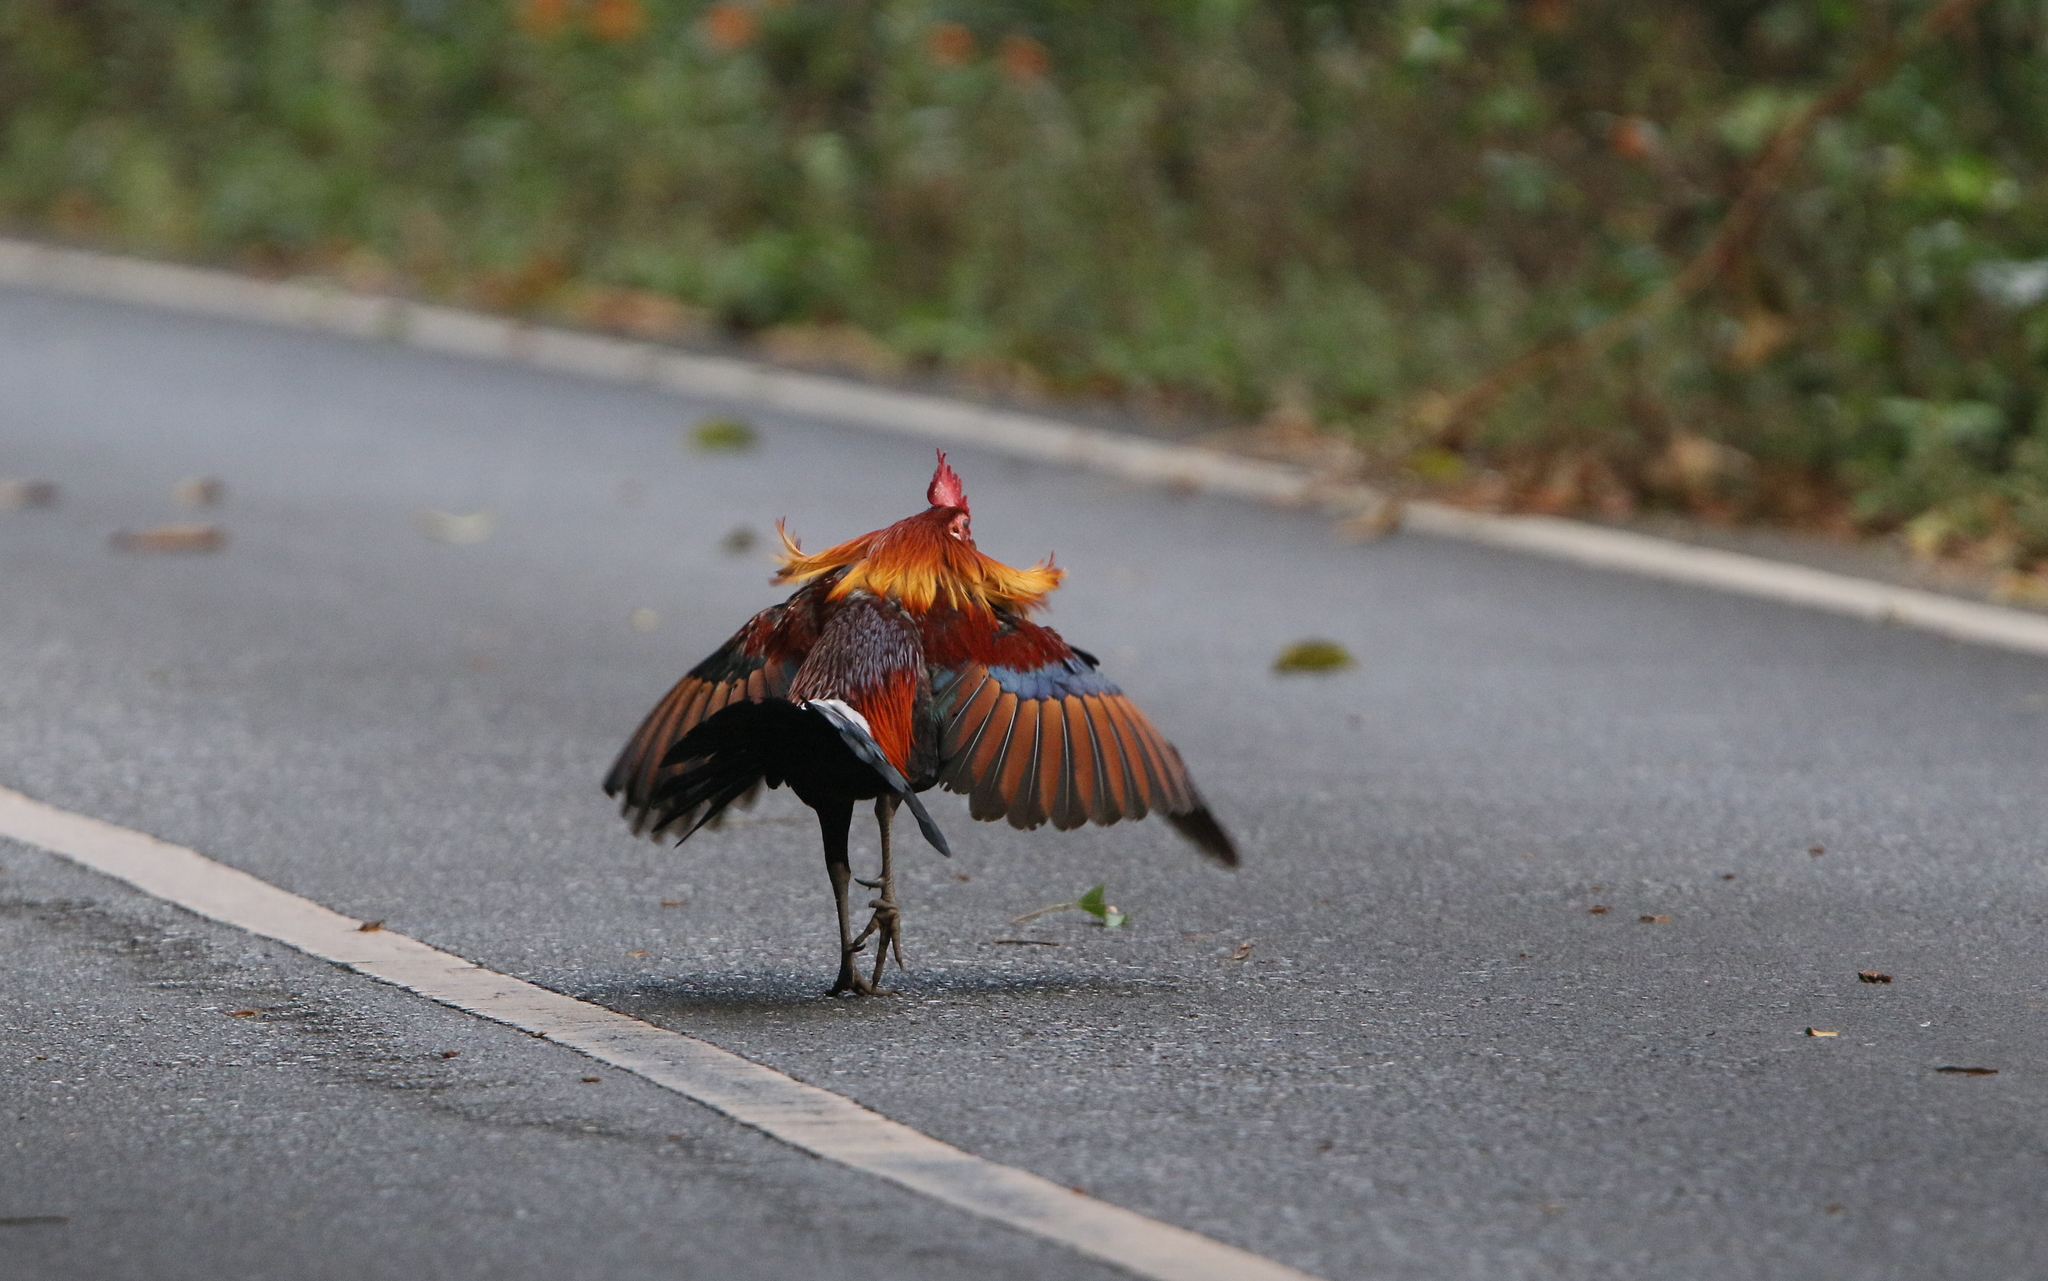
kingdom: Animalia
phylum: Chordata
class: Aves
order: Galliformes
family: Phasianidae
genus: Gallus
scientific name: Gallus gallus
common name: Red junglefowl
